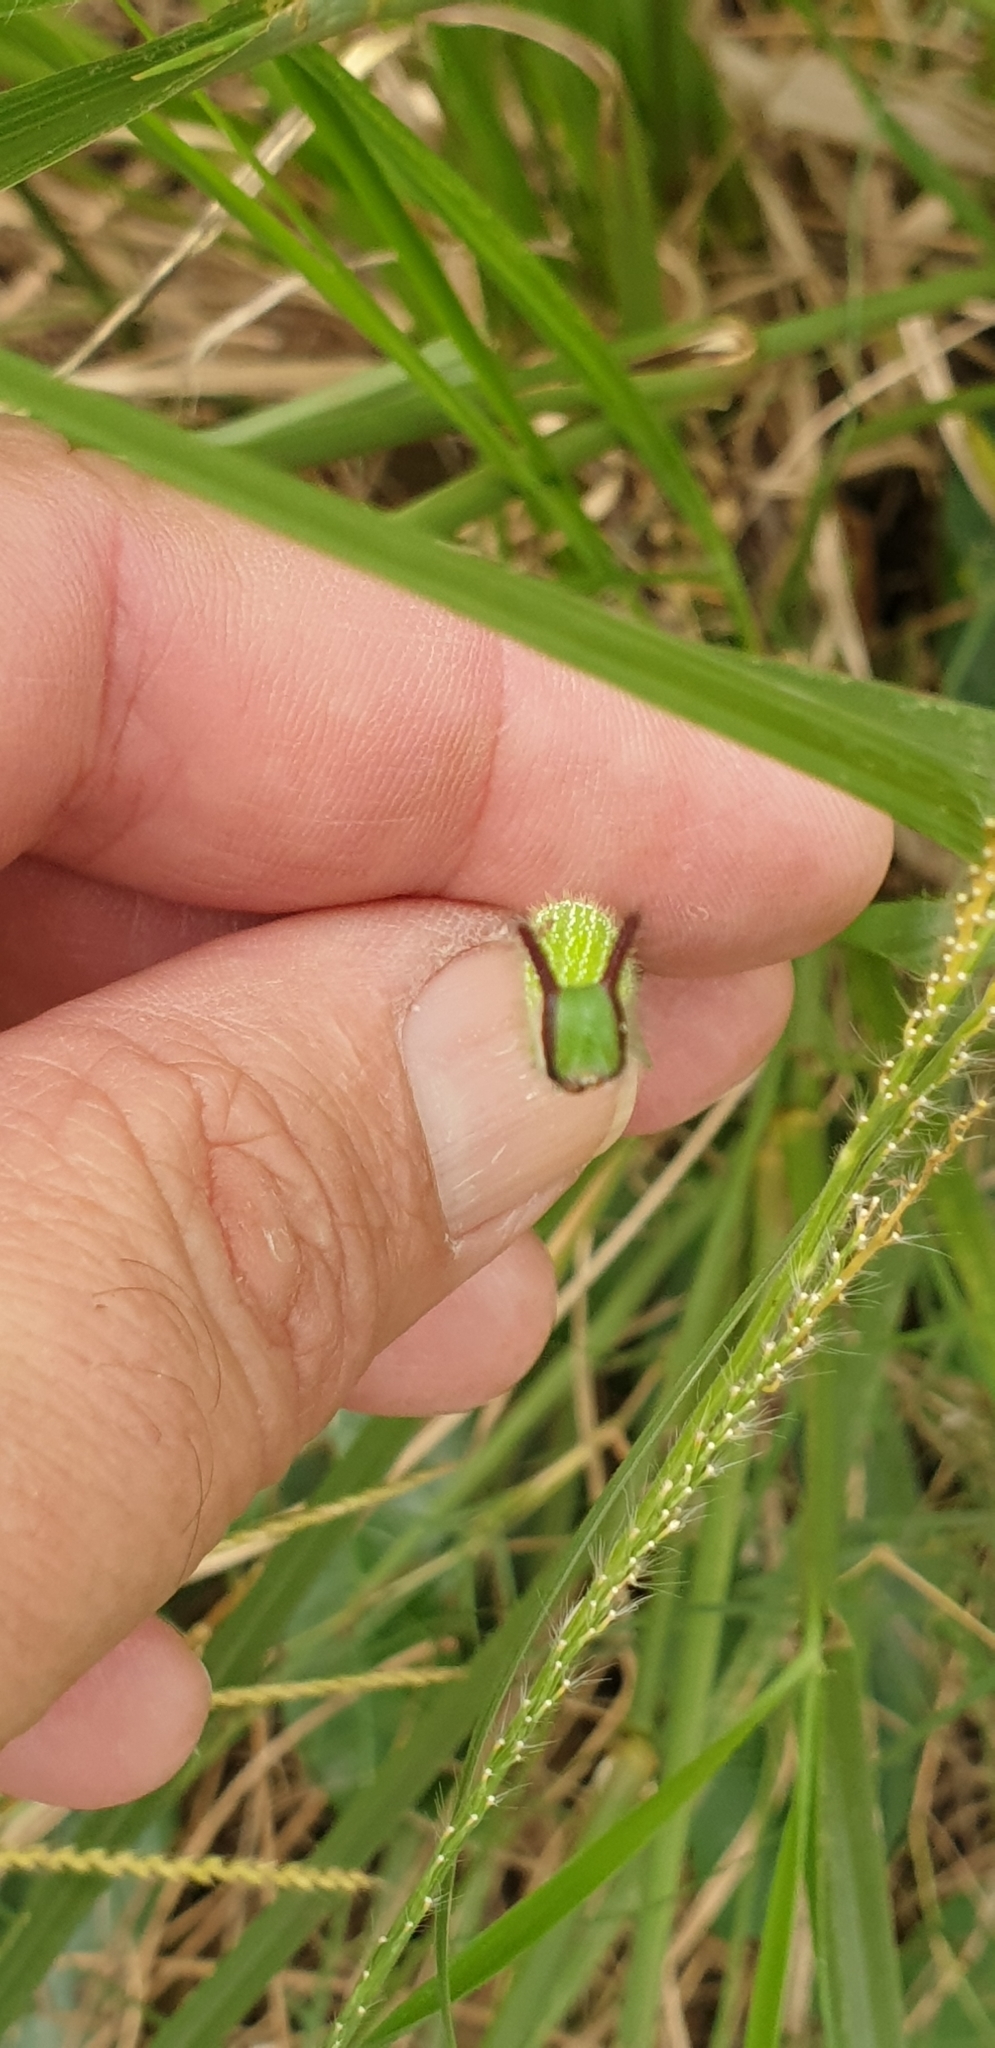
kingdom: Animalia
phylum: Arthropoda
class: Insecta
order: Lepidoptera
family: Nymphalidae
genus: Melanitis
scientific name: Melanitis leda
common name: Twilight brown
